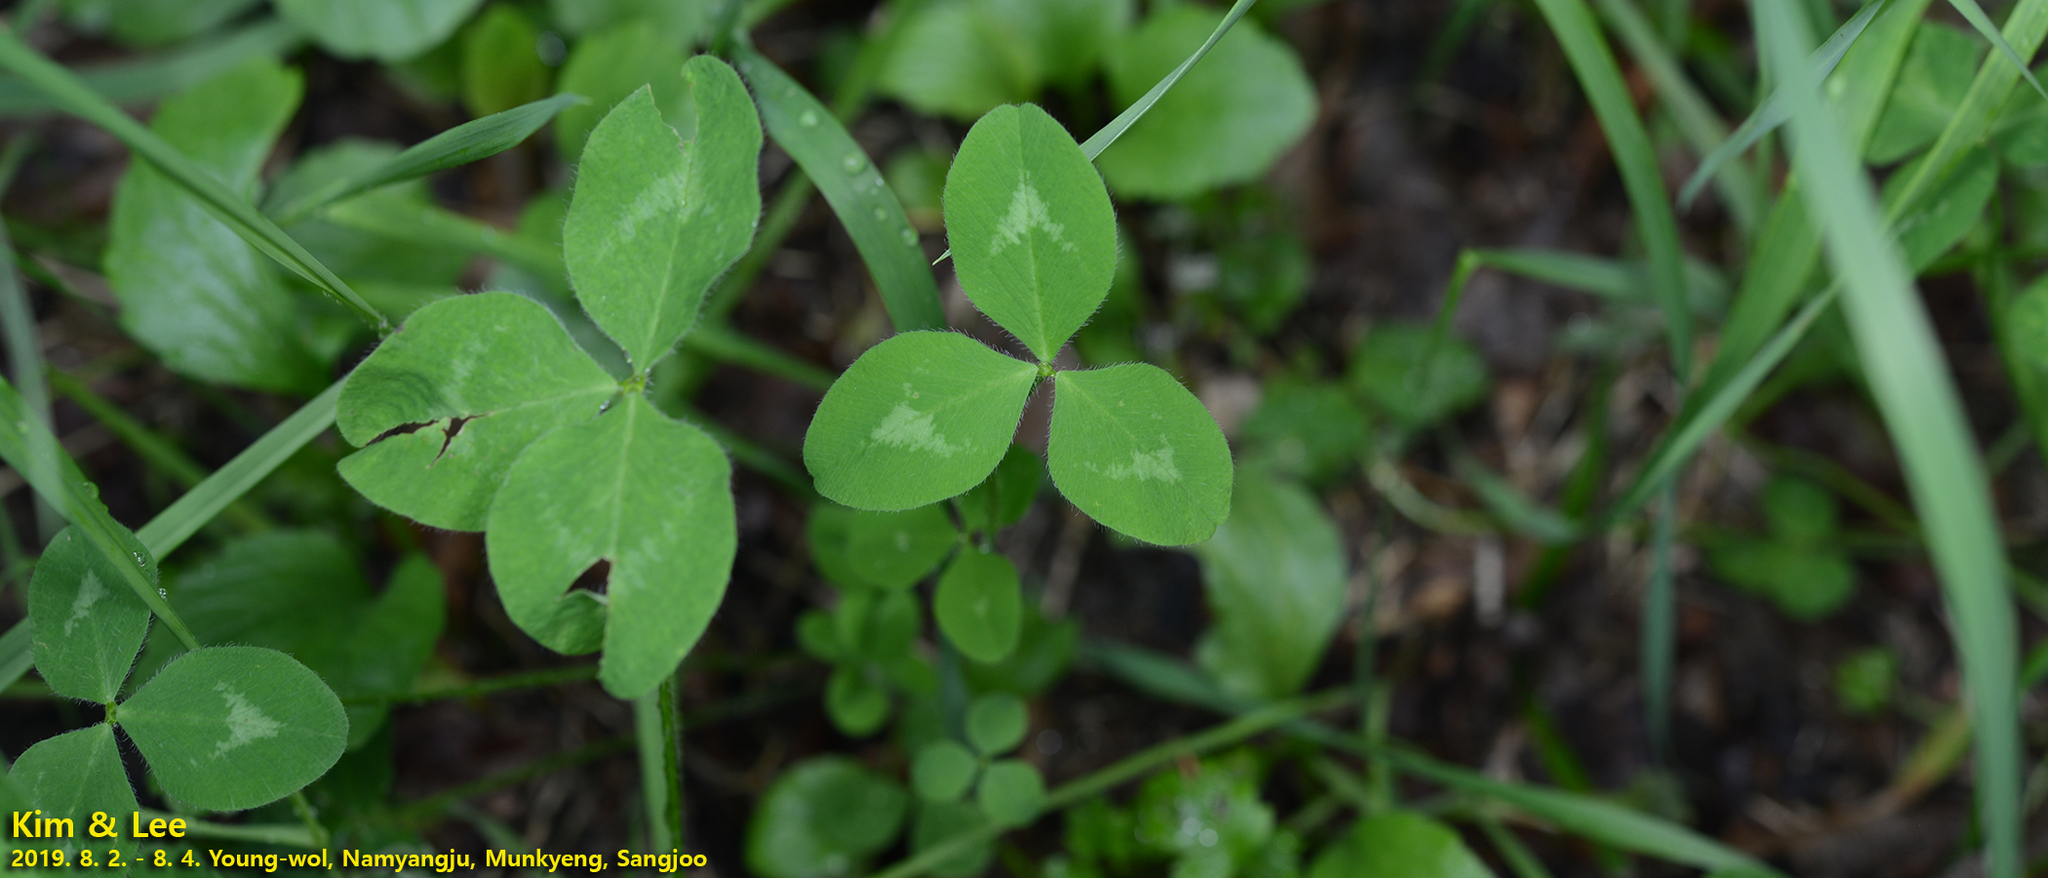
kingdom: Plantae
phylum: Tracheophyta
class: Magnoliopsida
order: Fabales
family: Fabaceae
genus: Trifolium
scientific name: Trifolium pratense
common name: Red clover
